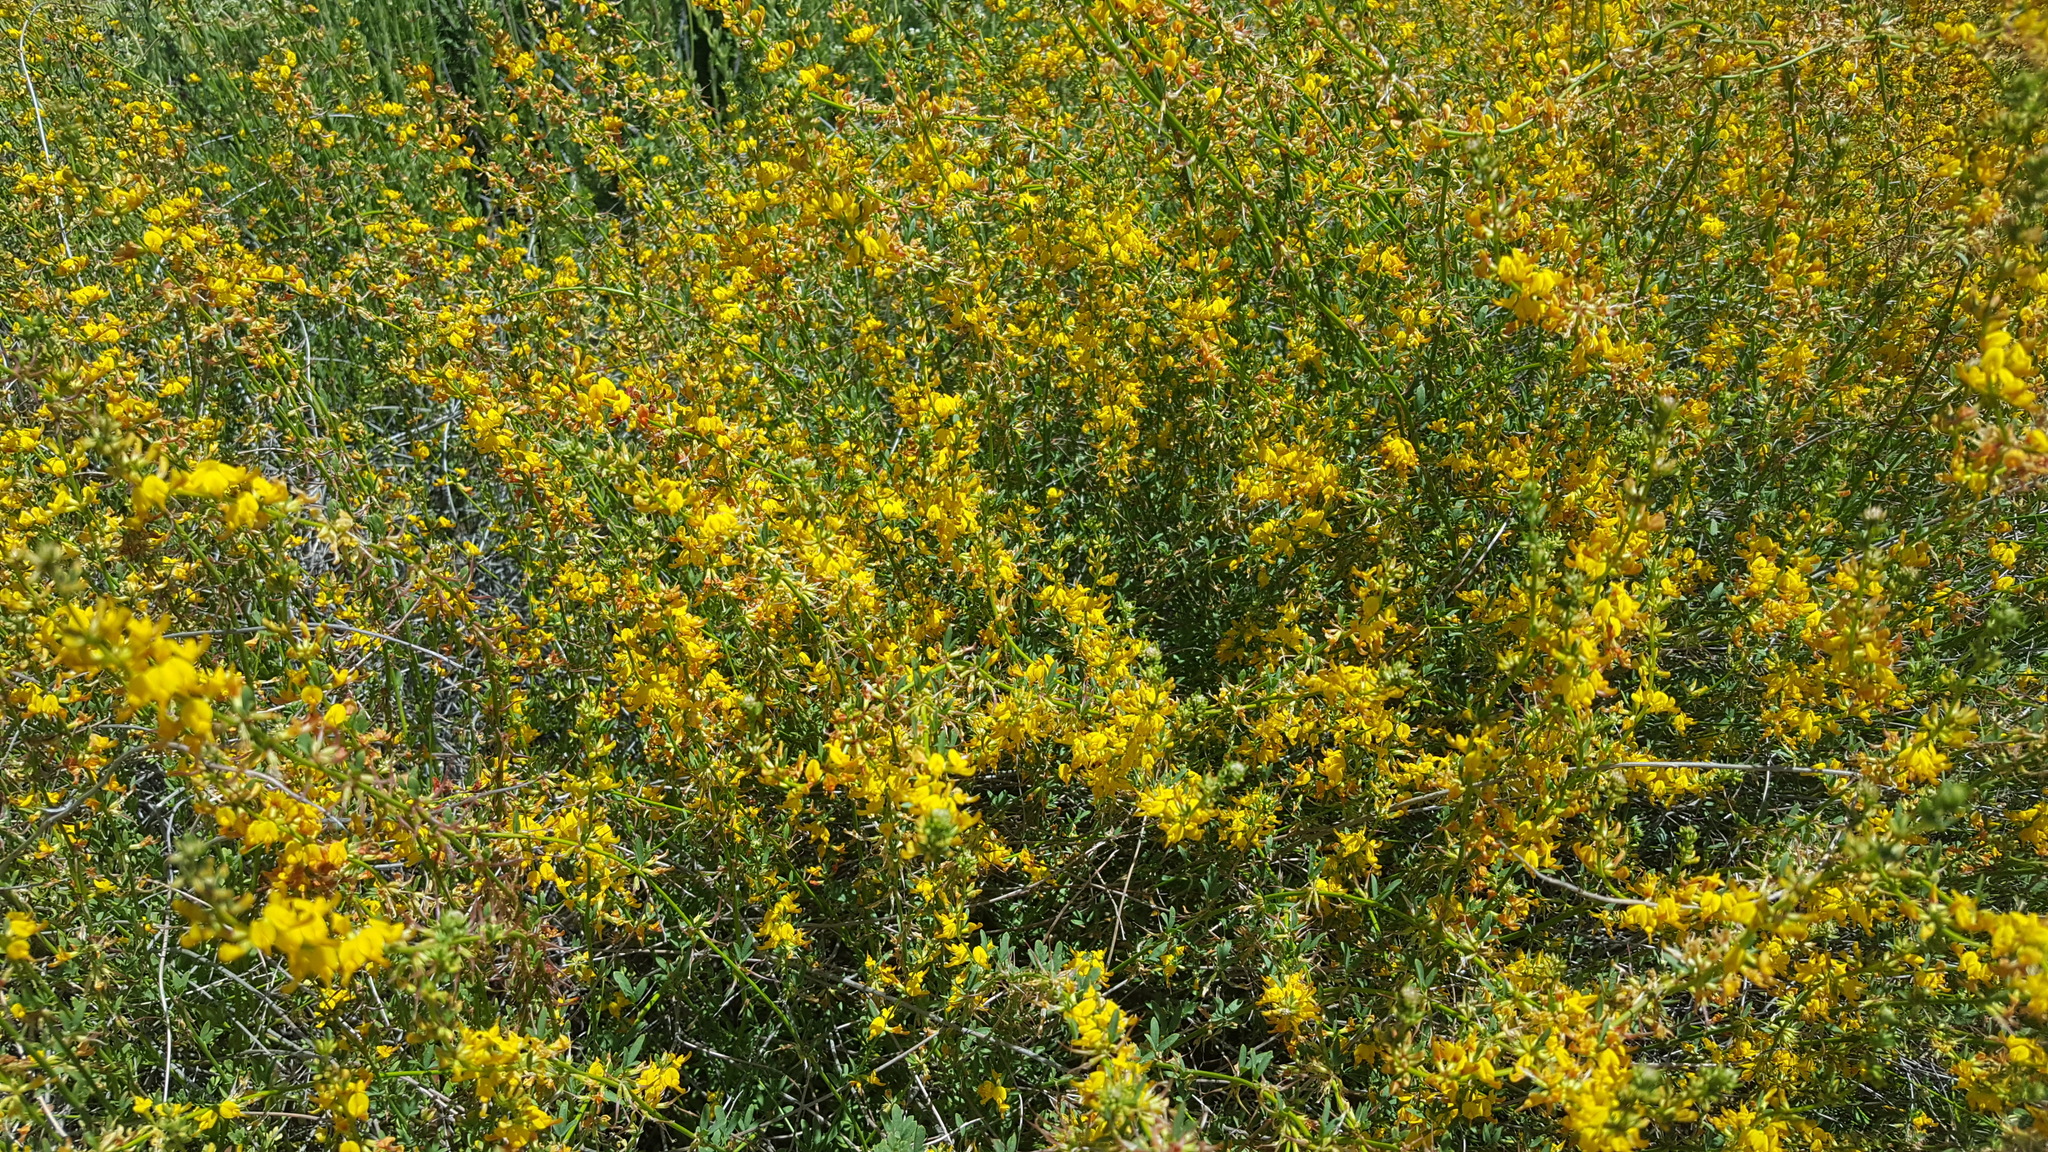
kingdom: Plantae
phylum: Tracheophyta
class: Magnoliopsida
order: Fabales
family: Fabaceae
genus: Acmispon
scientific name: Acmispon glaber
